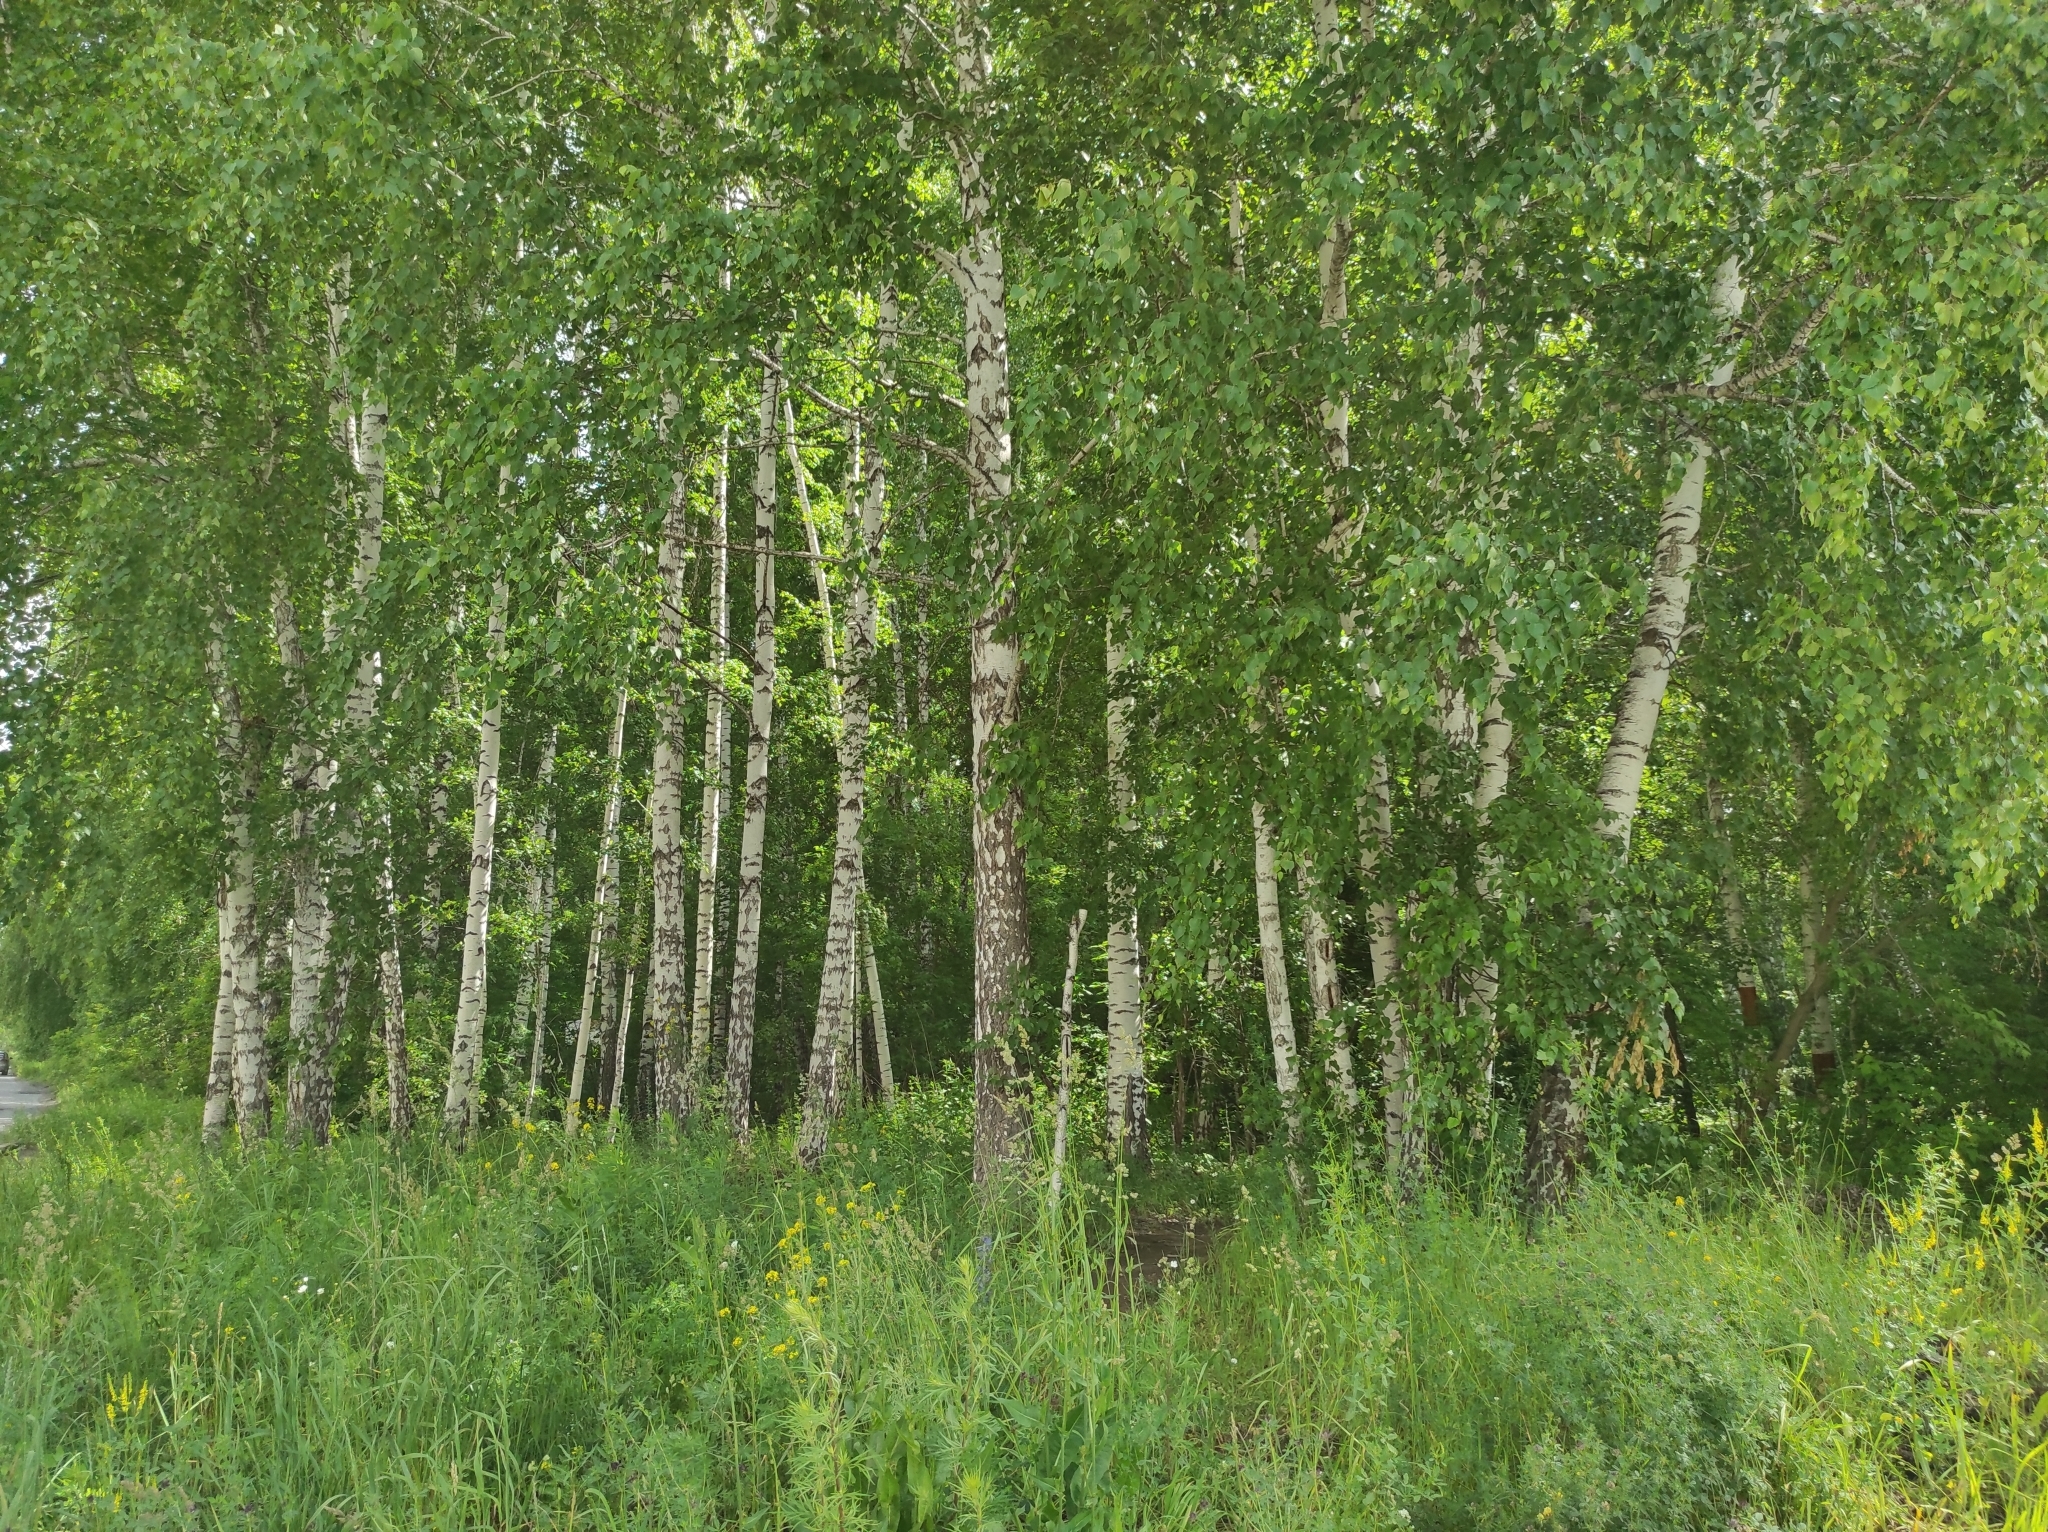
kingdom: Plantae
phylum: Tracheophyta
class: Magnoliopsida
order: Fagales
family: Betulaceae
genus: Betula
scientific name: Betula pendula
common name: Silver birch
